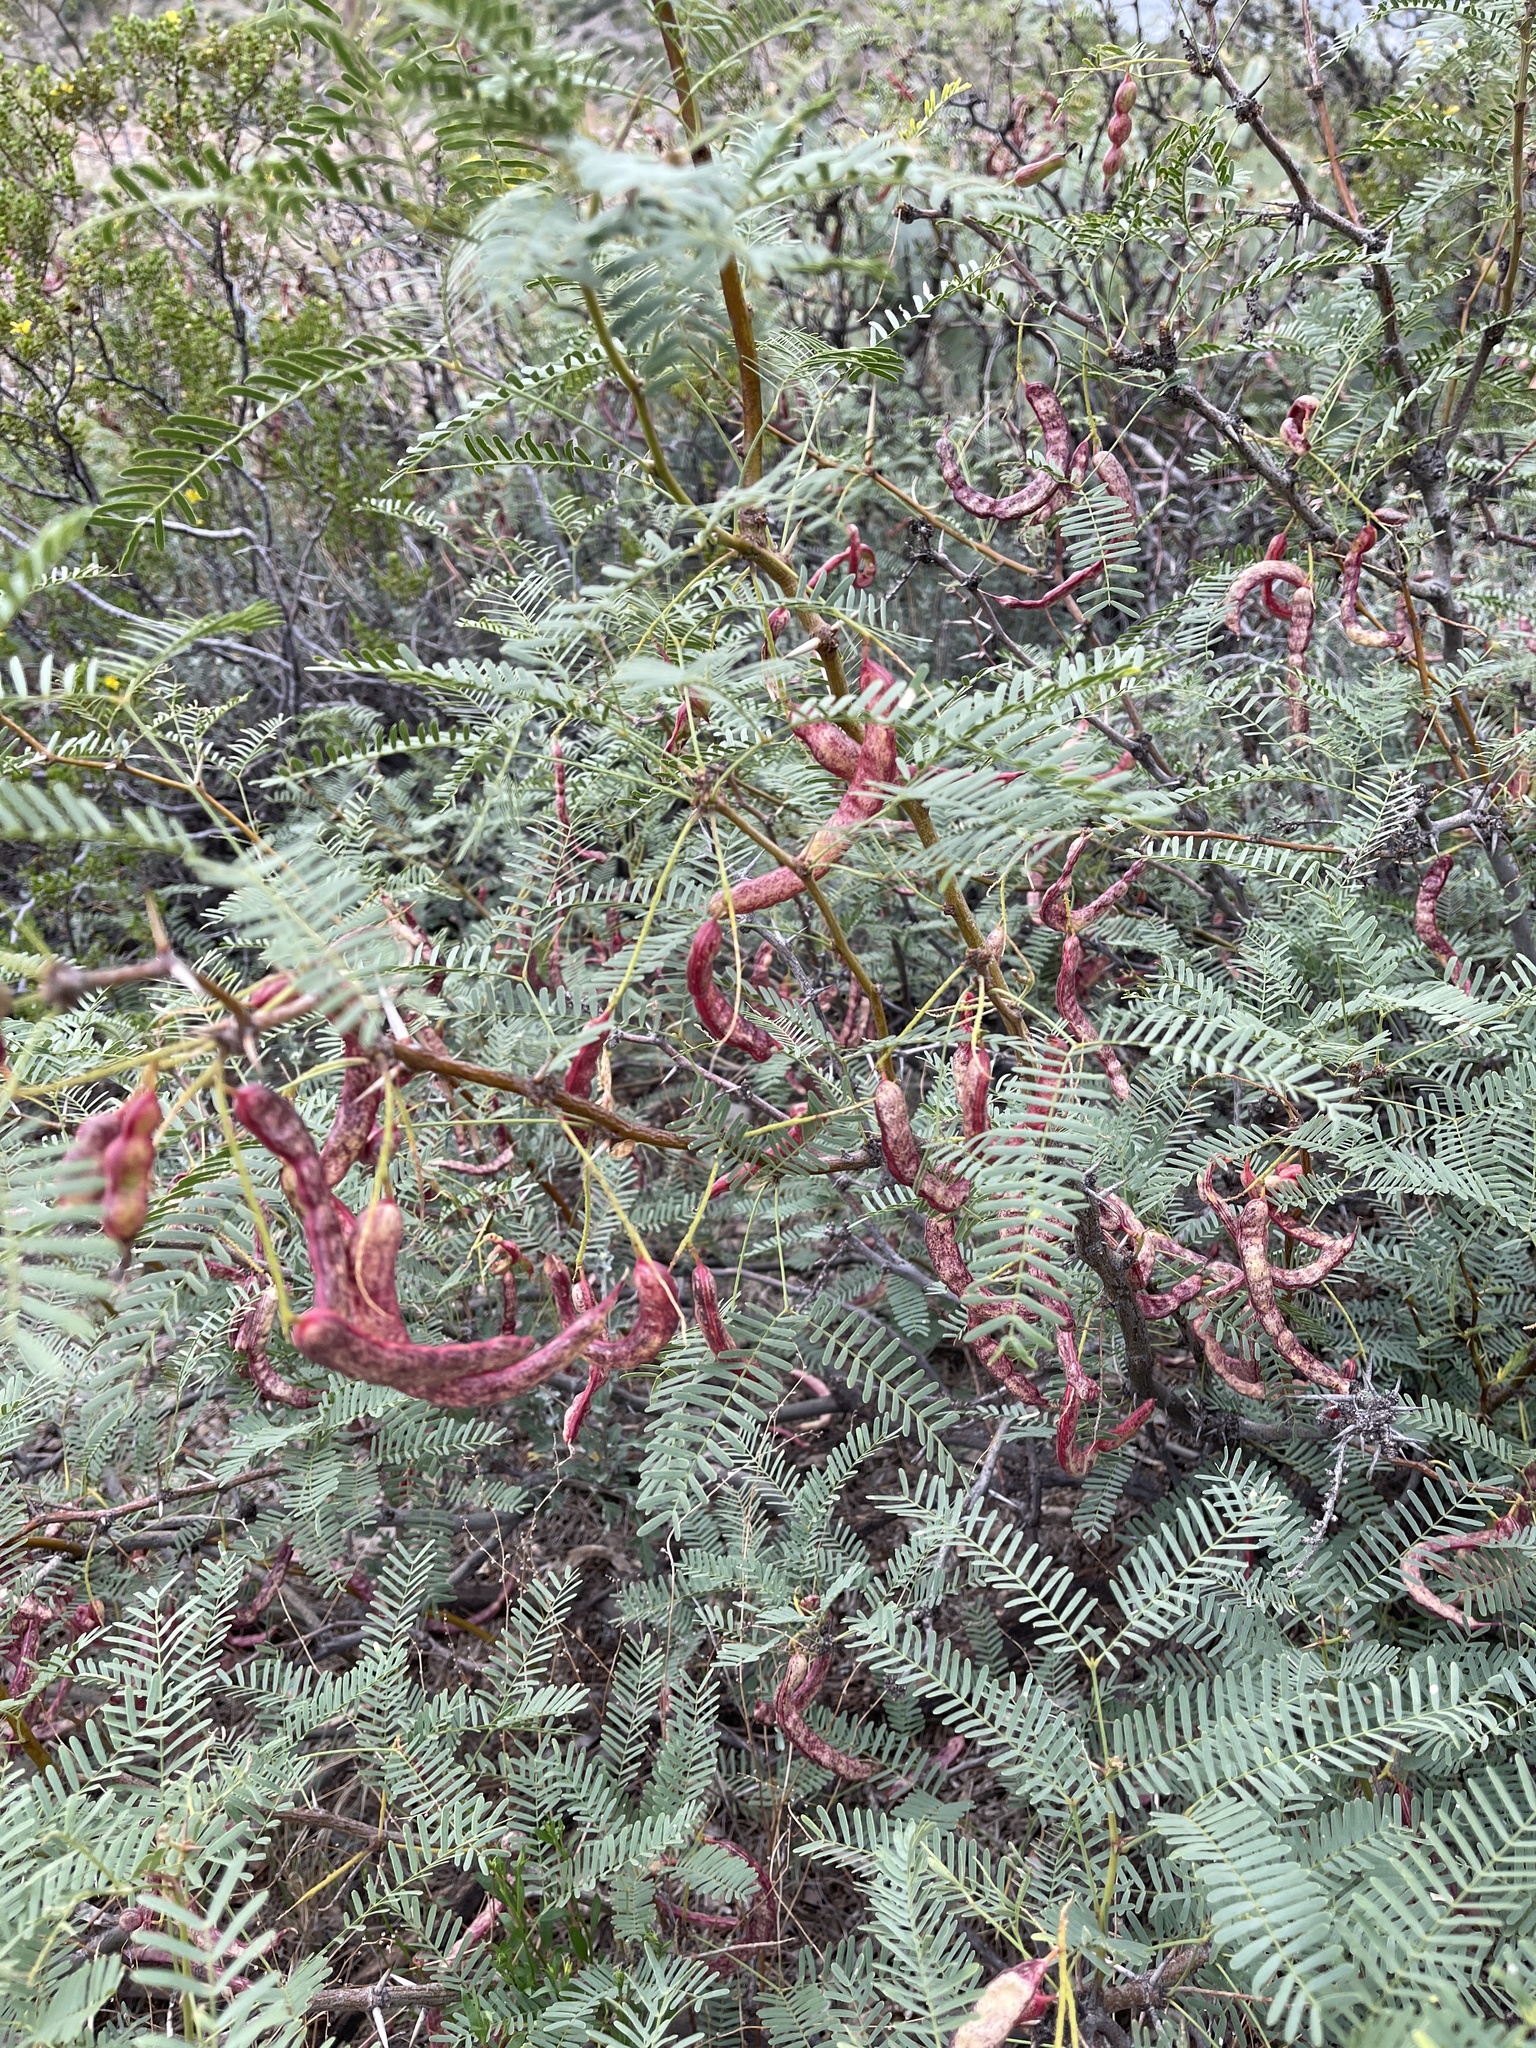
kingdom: Plantae
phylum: Tracheophyta
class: Magnoliopsida
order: Fabales
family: Fabaceae
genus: Prosopis
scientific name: Prosopis glandulosa
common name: Honey mesquite
